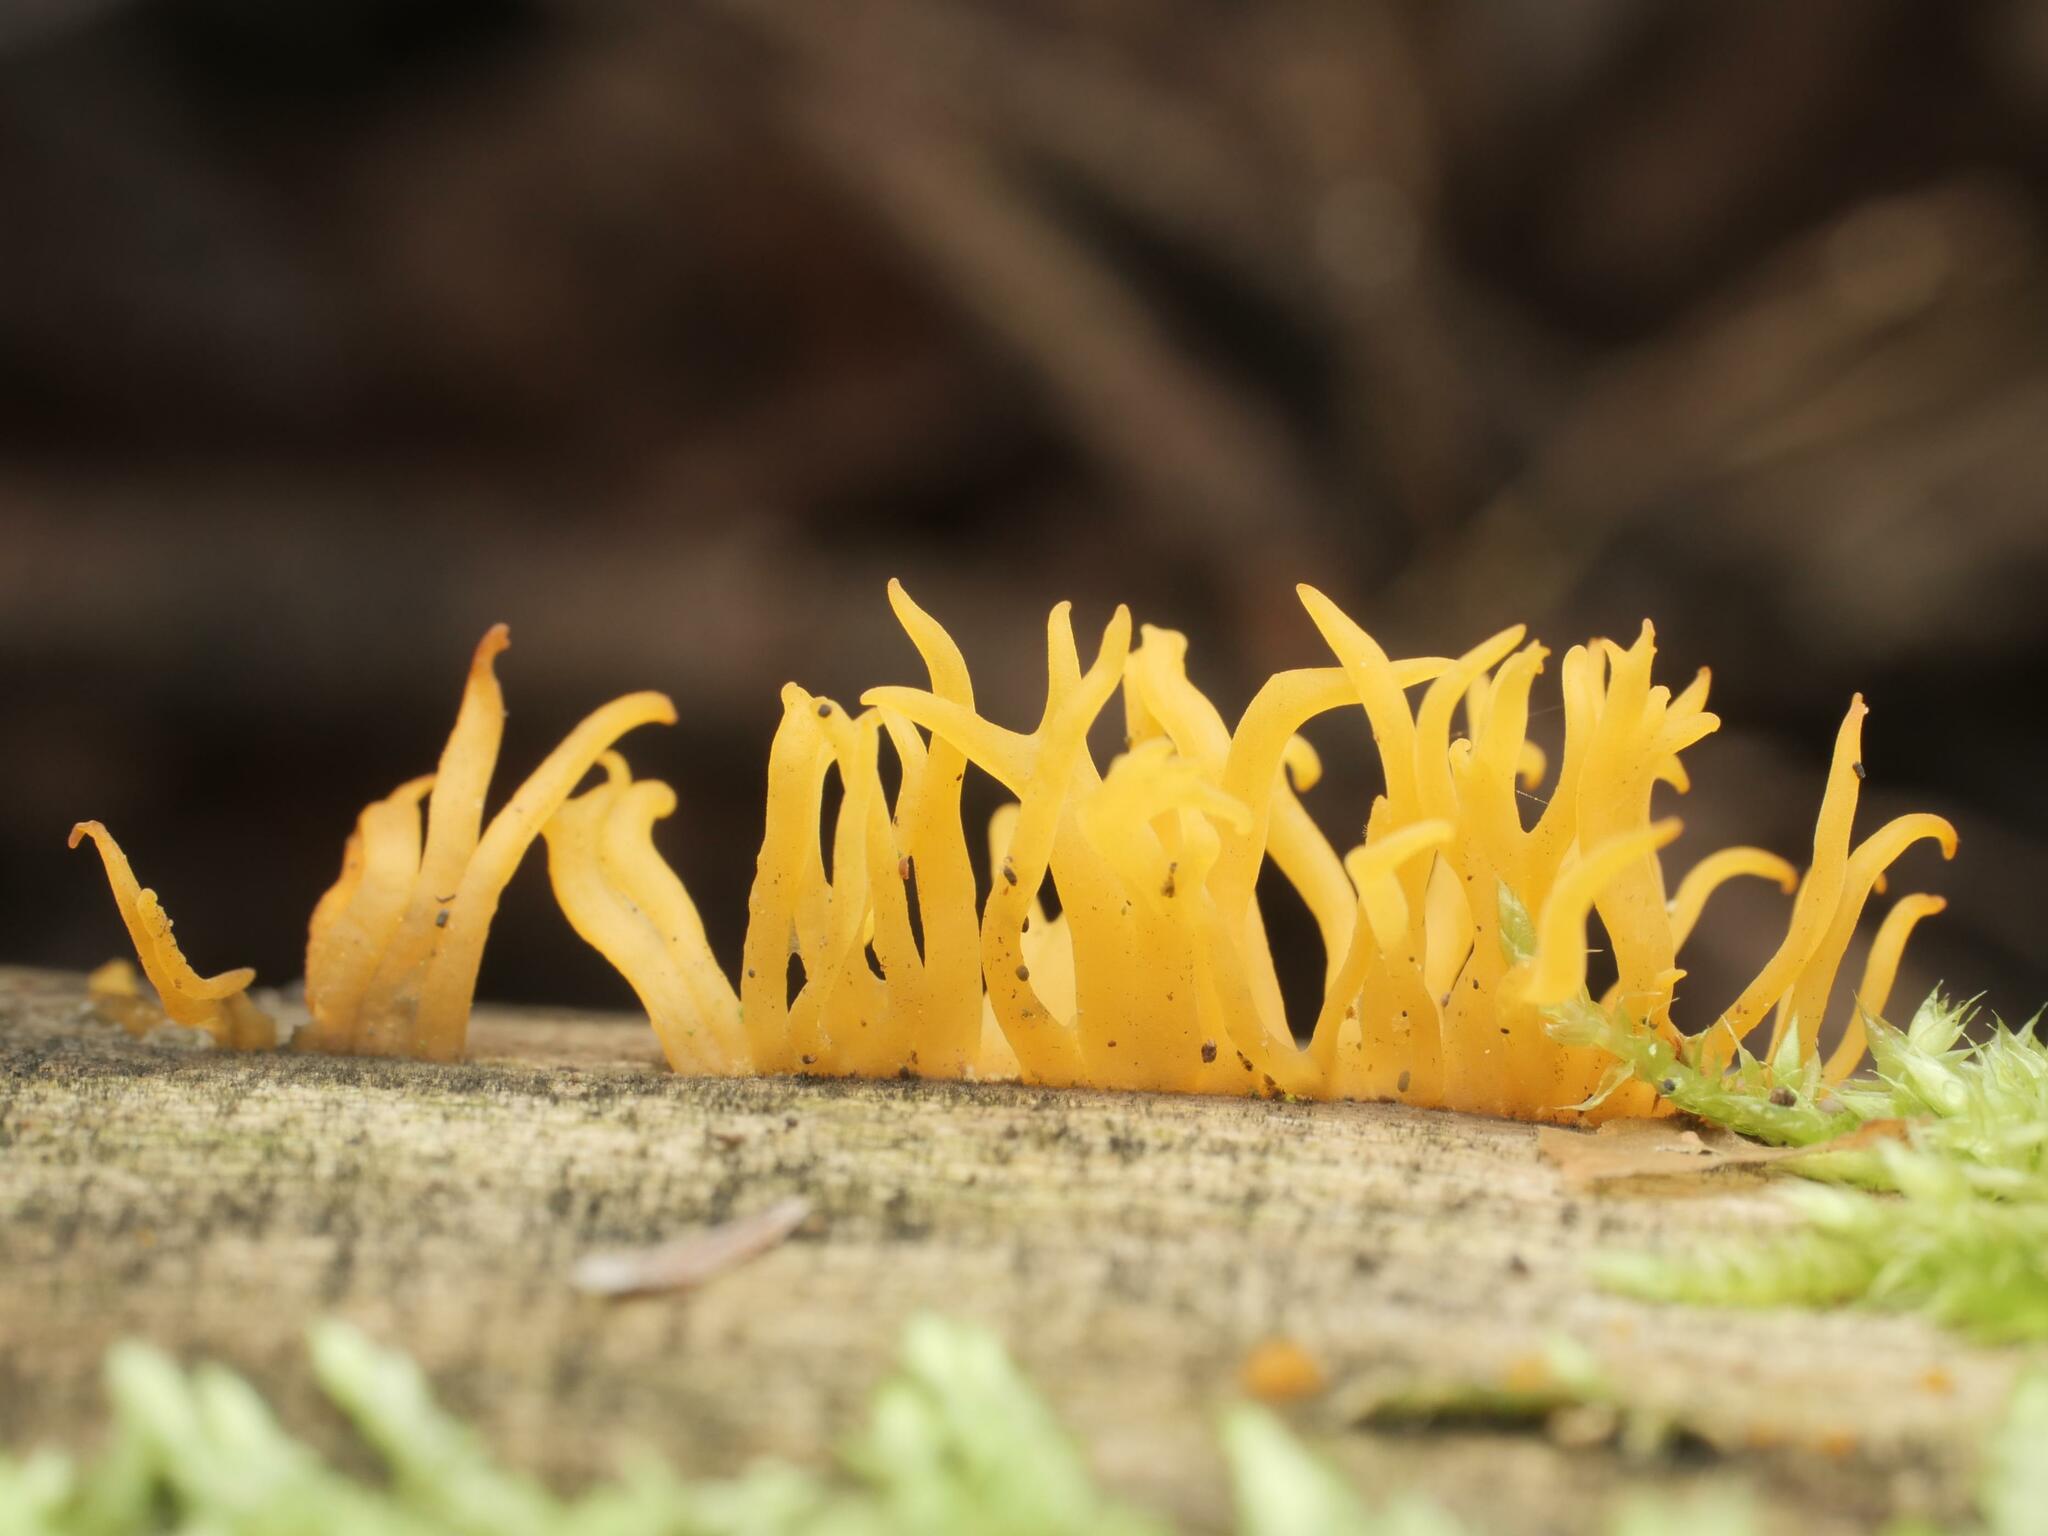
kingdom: Fungi
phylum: Basidiomycota
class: Dacrymycetes
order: Dacrymycetales
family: Dacrymycetaceae
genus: Calocera
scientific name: Calocera cornea
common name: Small stagshorn
